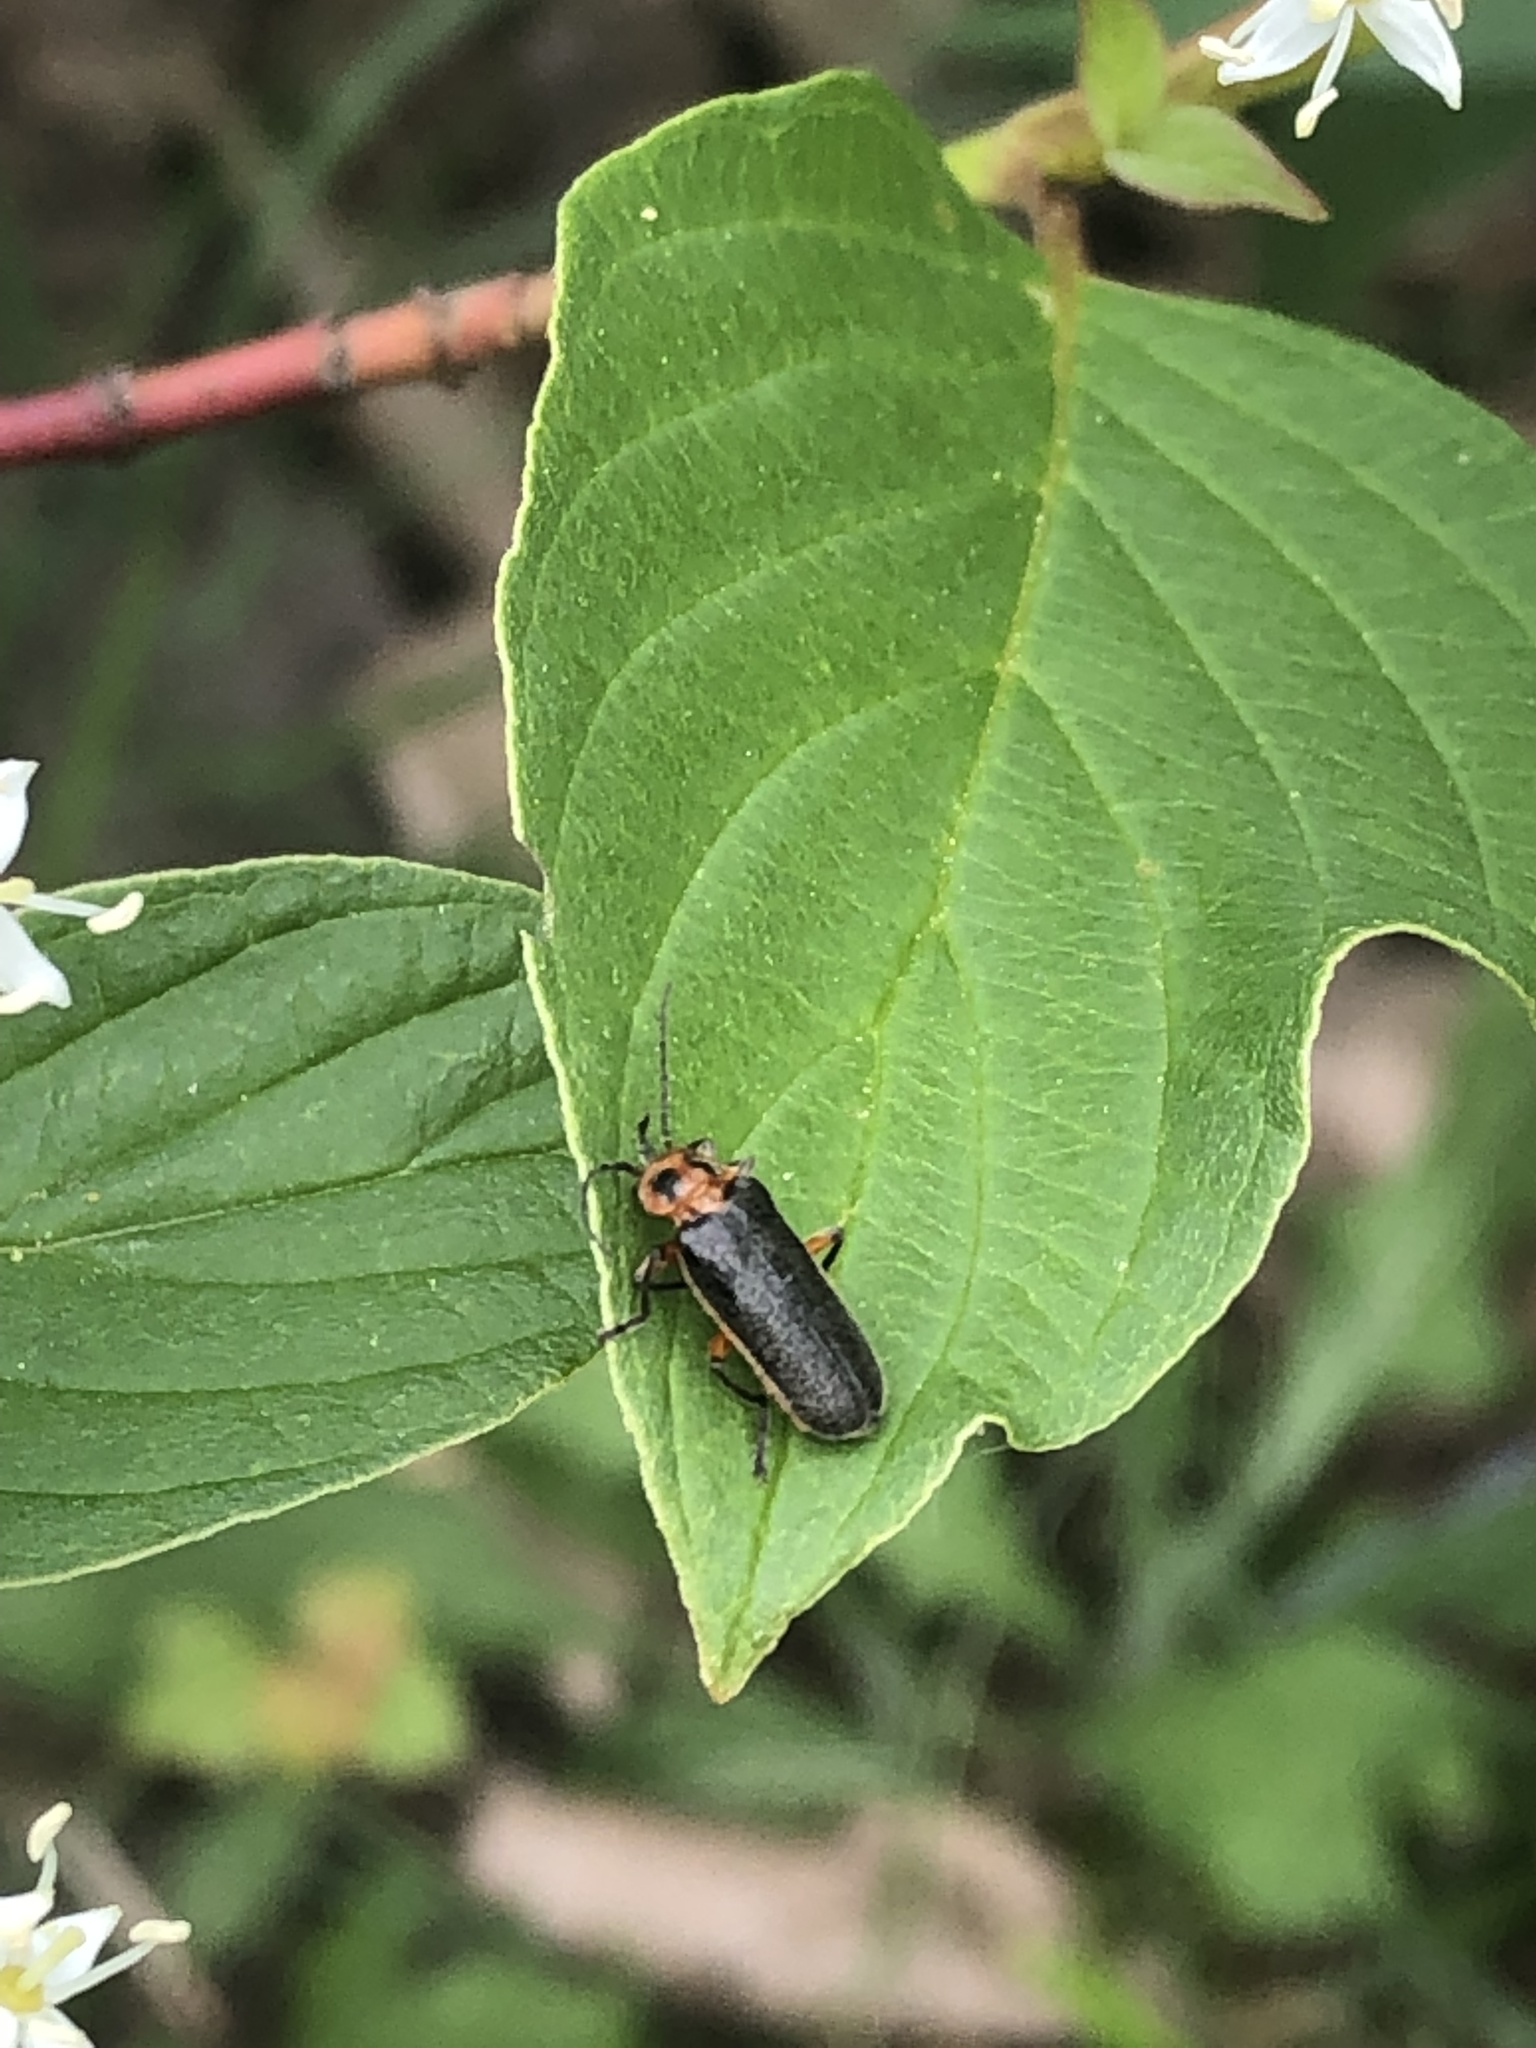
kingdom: Animalia
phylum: Arthropoda
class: Insecta
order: Coleoptera
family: Cantharidae
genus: Atalantycha
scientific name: Atalantycha bilineata
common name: Two-lined leatherwing
